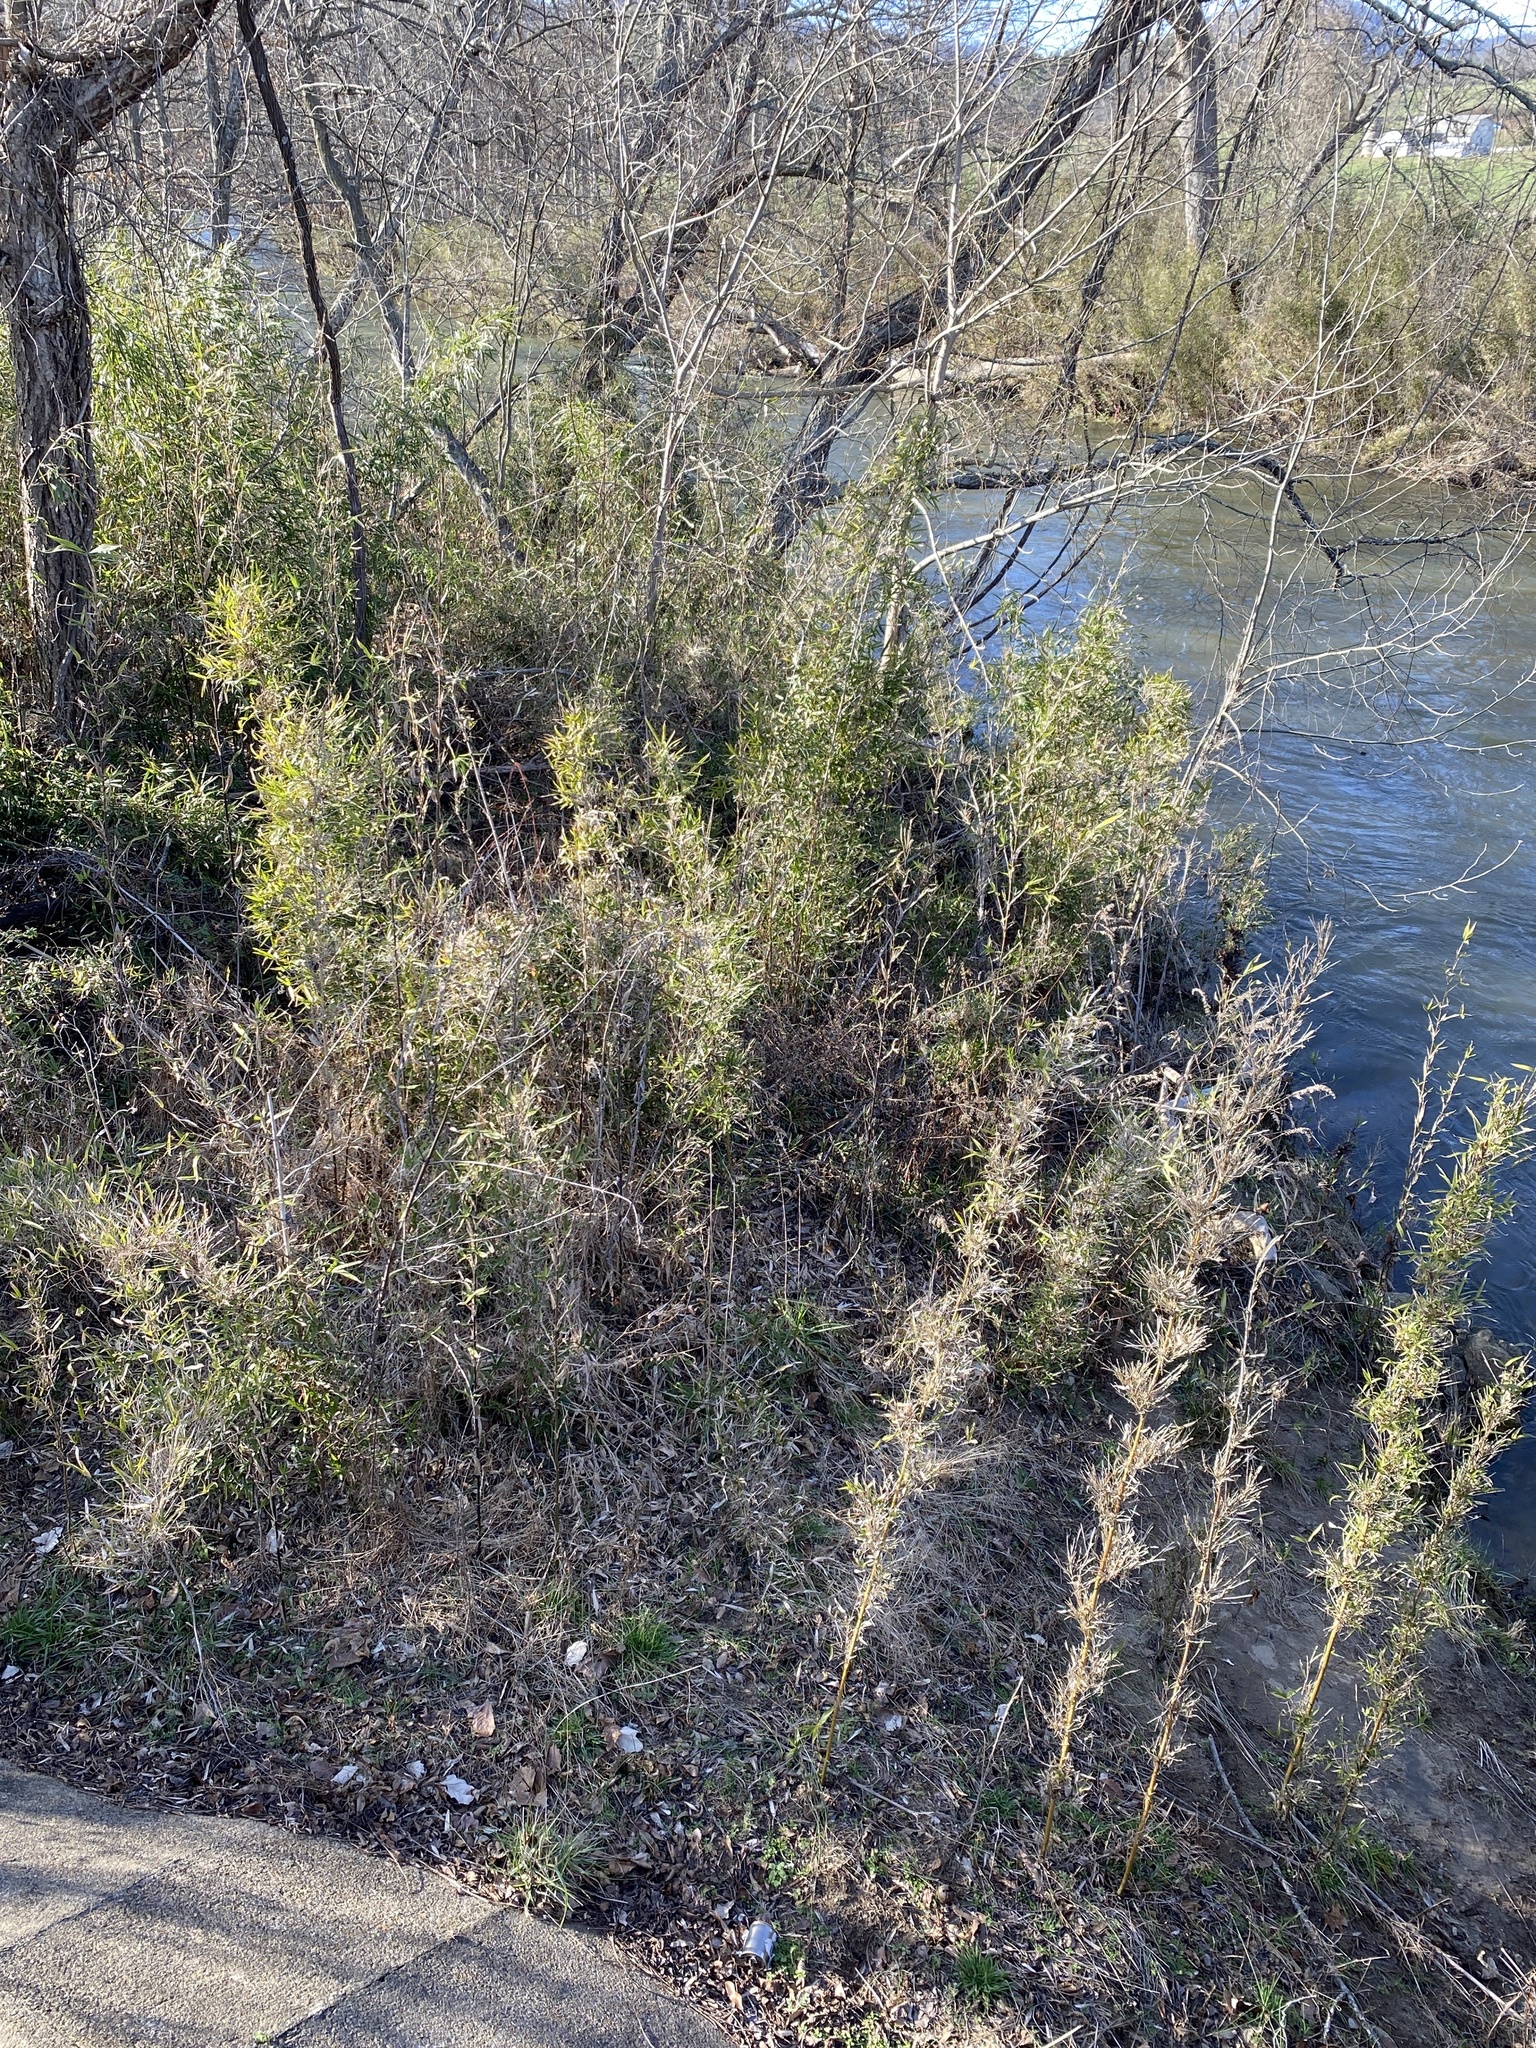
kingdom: Plantae
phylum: Tracheophyta
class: Liliopsida
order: Poales
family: Poaceae
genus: Arundinaria
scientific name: Arundinaria gigantea
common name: Giant cane
